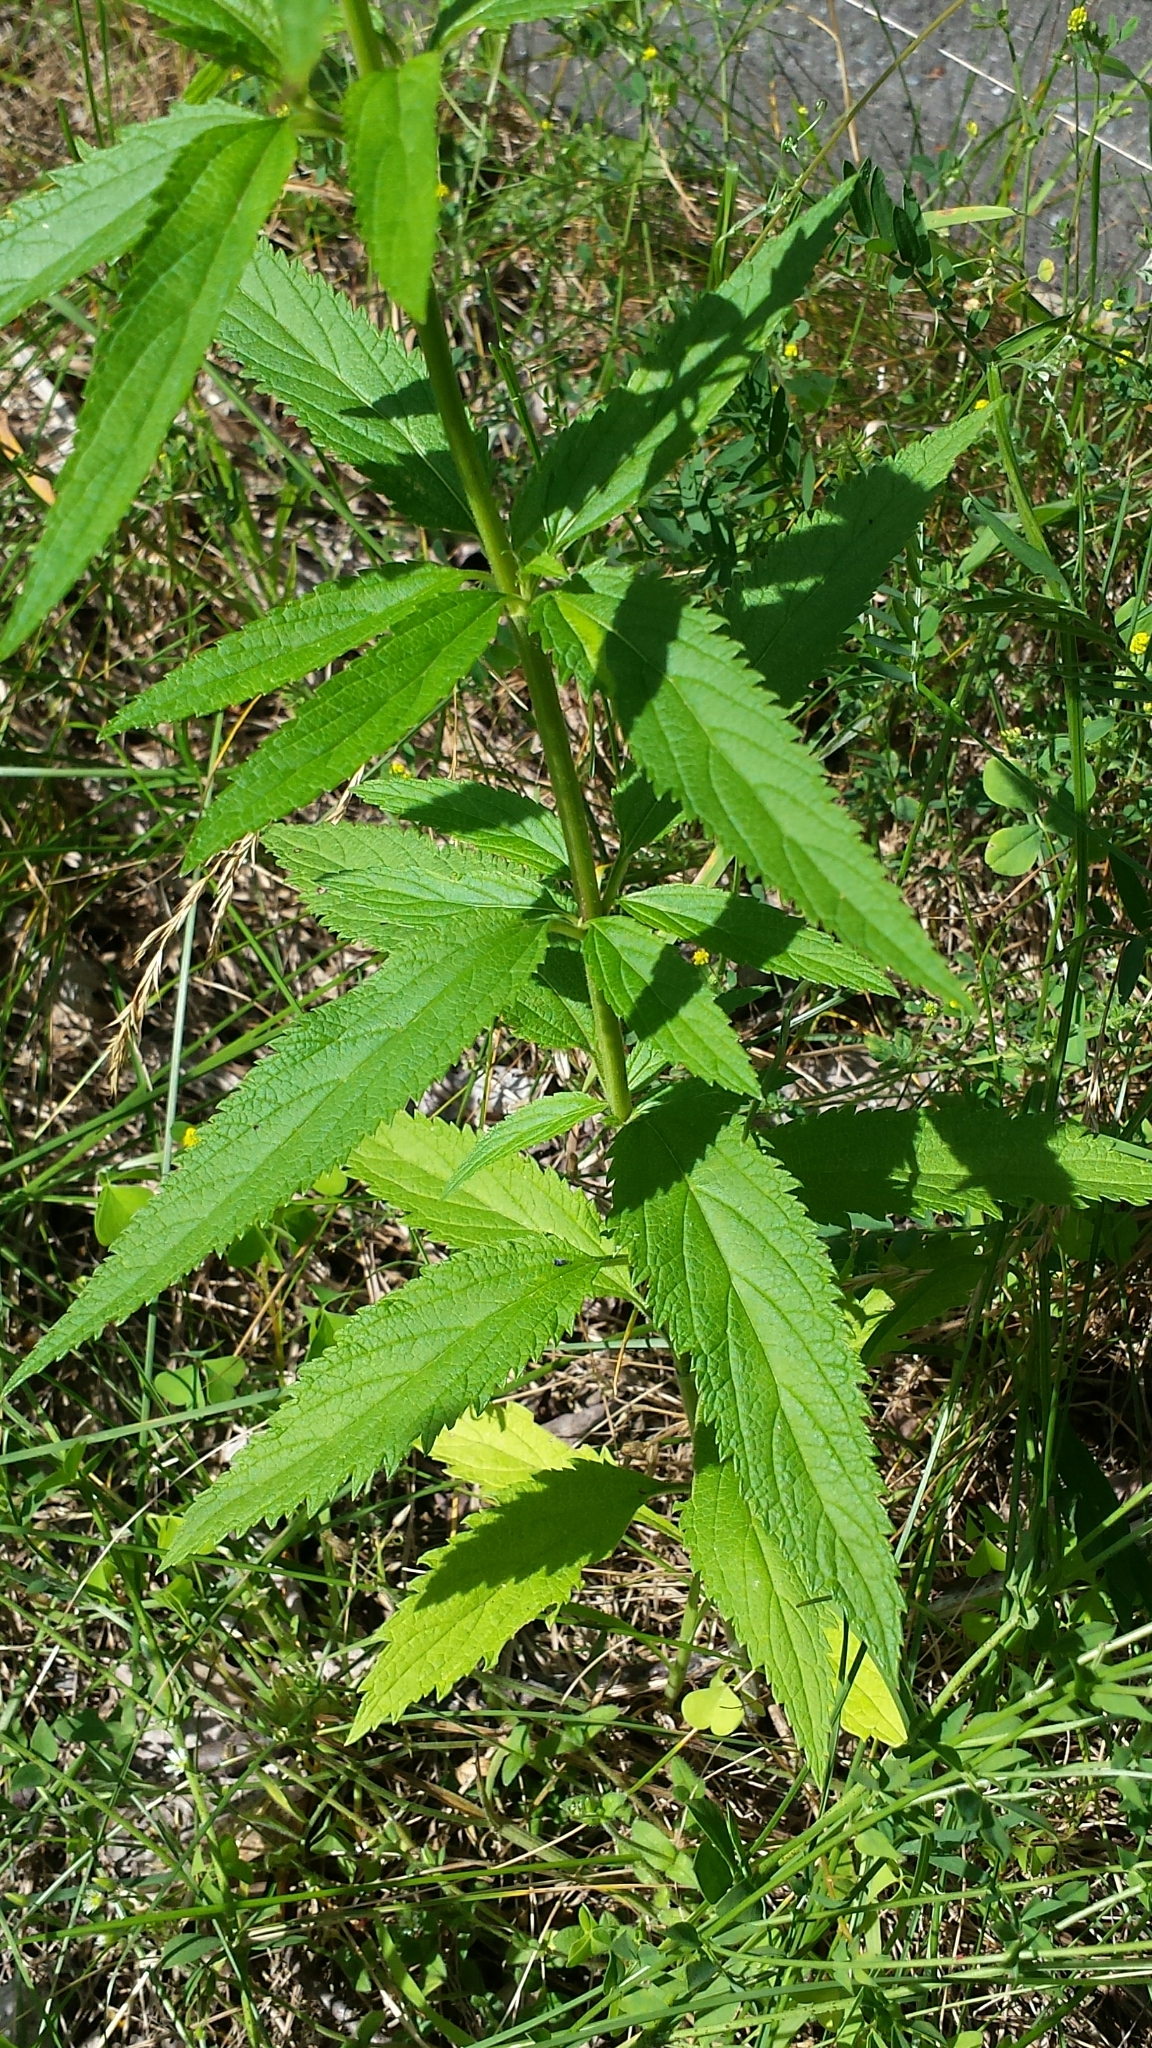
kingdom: Plantae
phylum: Tracheophyta
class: Magnoliopsida
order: Lamiales
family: Verbenaceae
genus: Verbena
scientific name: Verbena hastata
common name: American blue vervain
